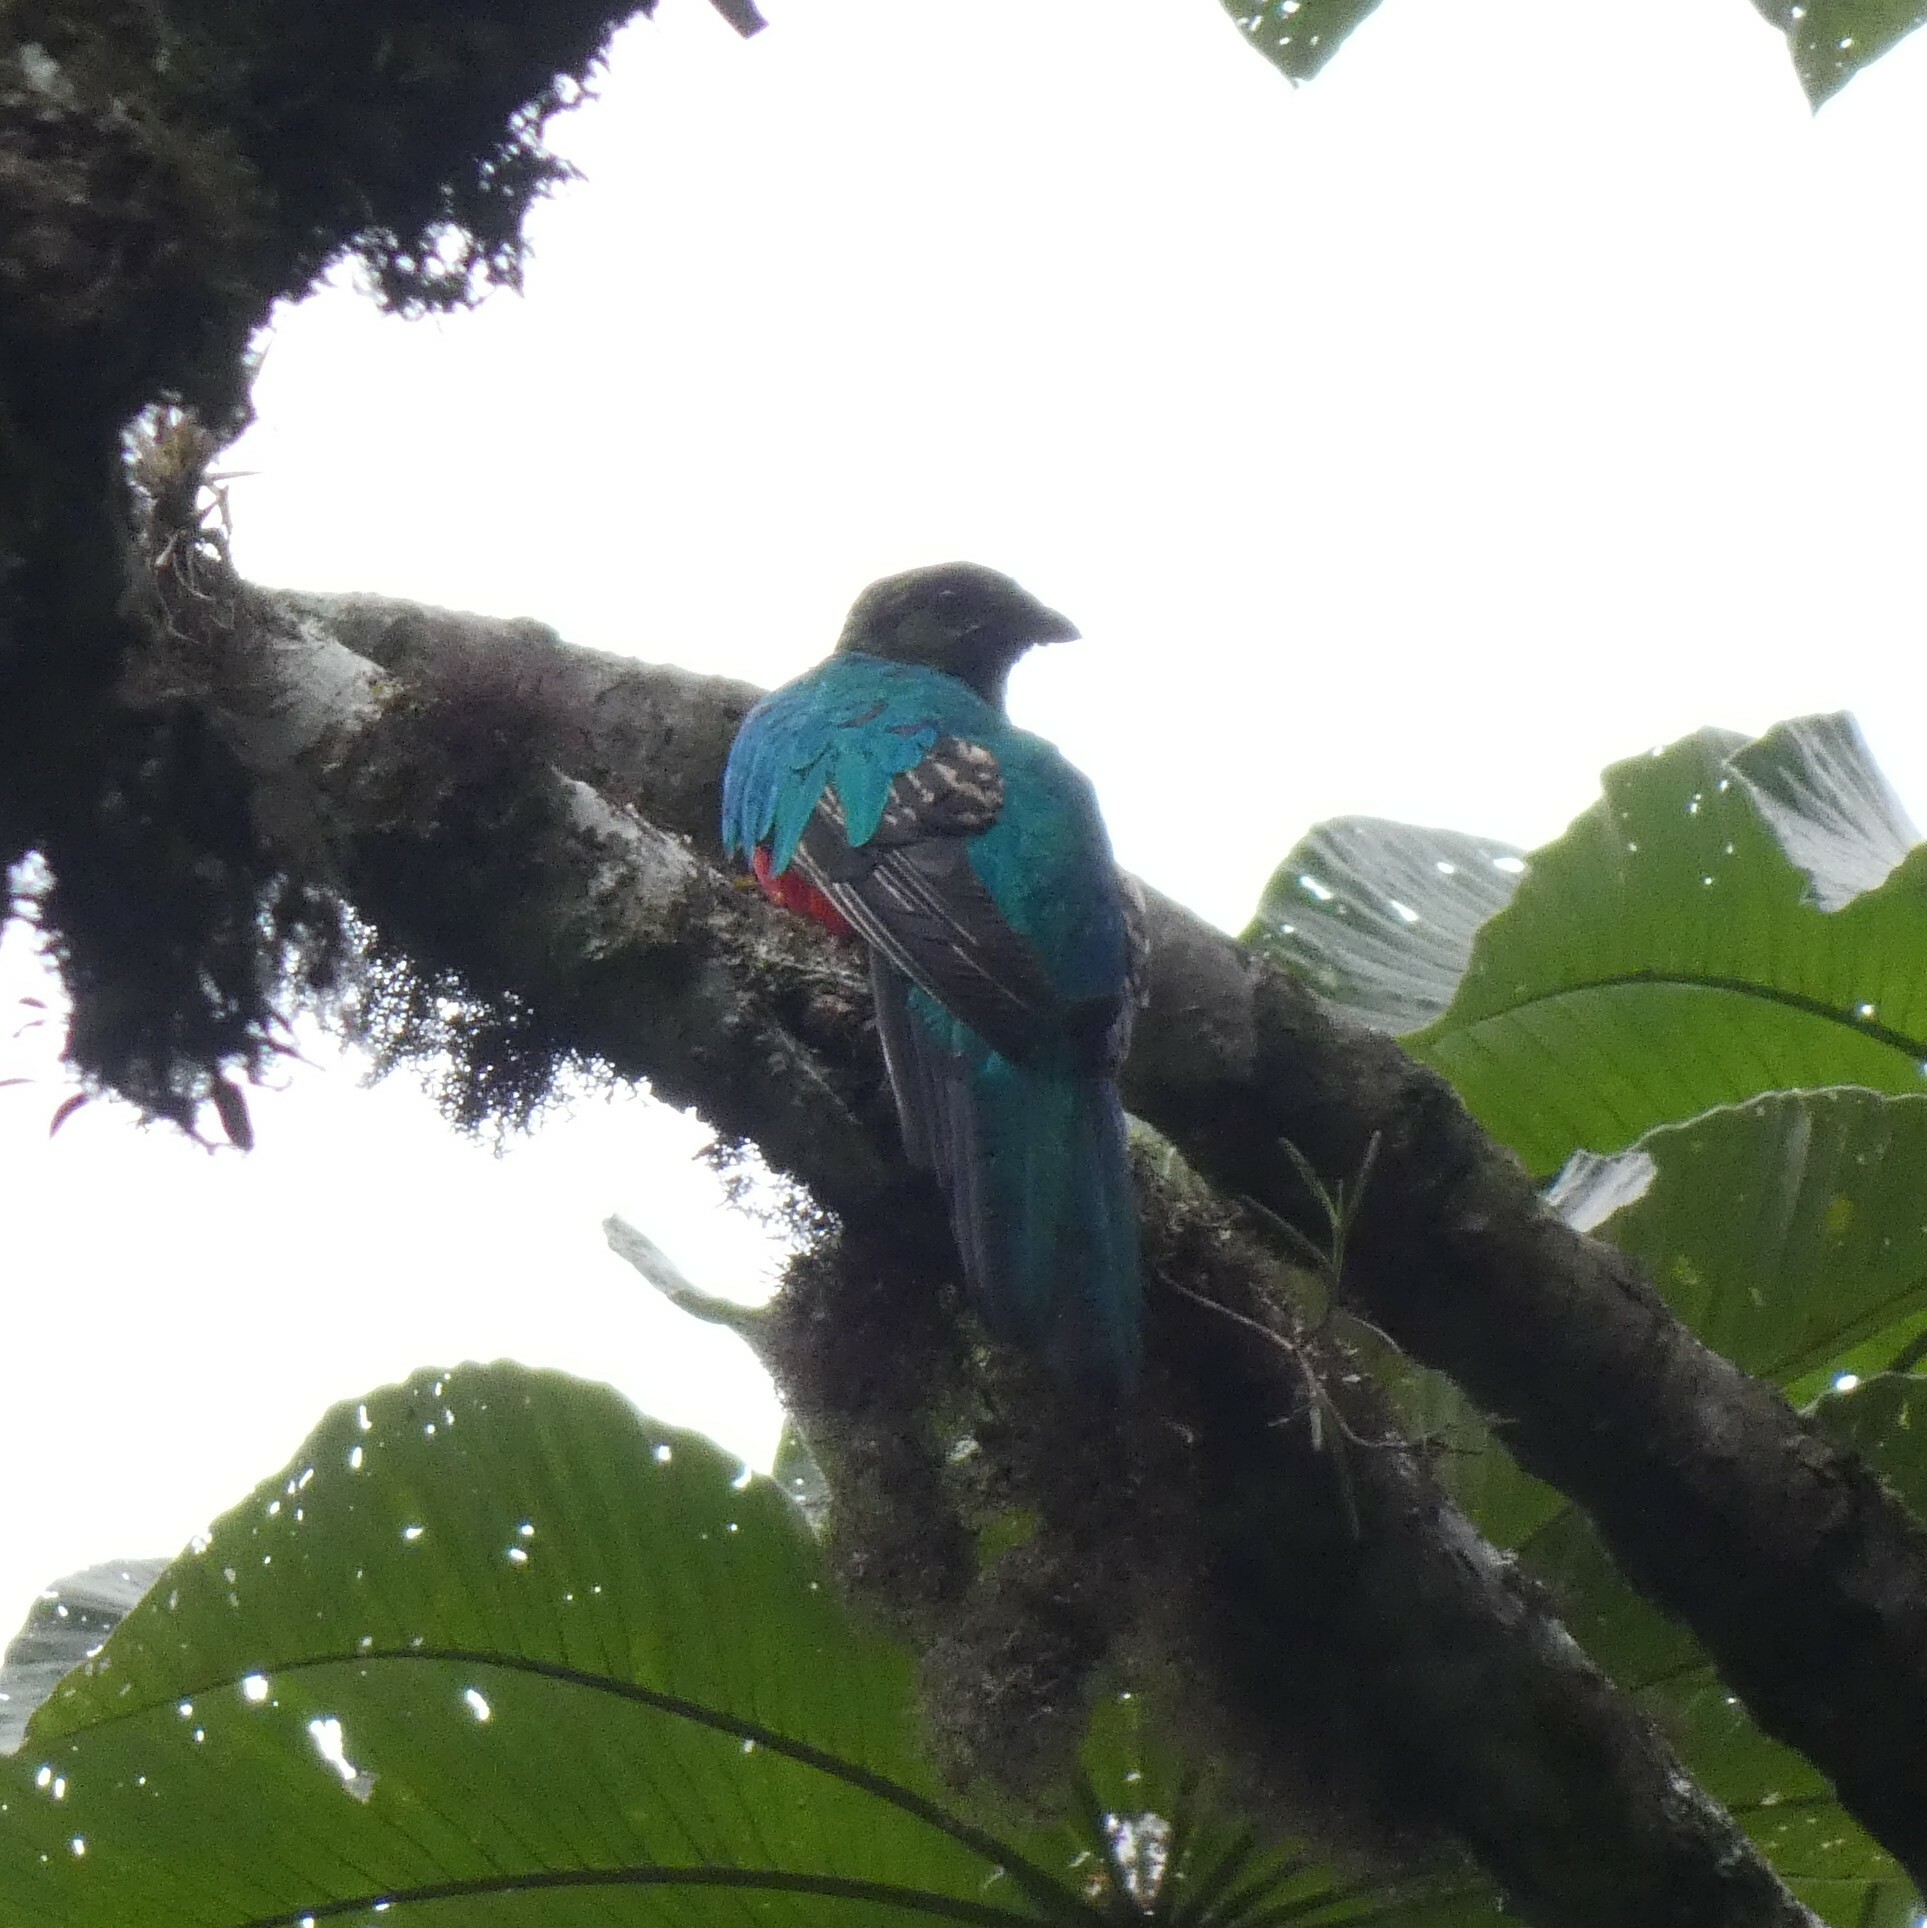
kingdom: Animalia
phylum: Chordata
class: Aves
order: Trogoniformes
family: Trogonidae
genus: Pharomachrus
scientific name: Pharomachrus auriceps
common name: Golden-headed quetzal
